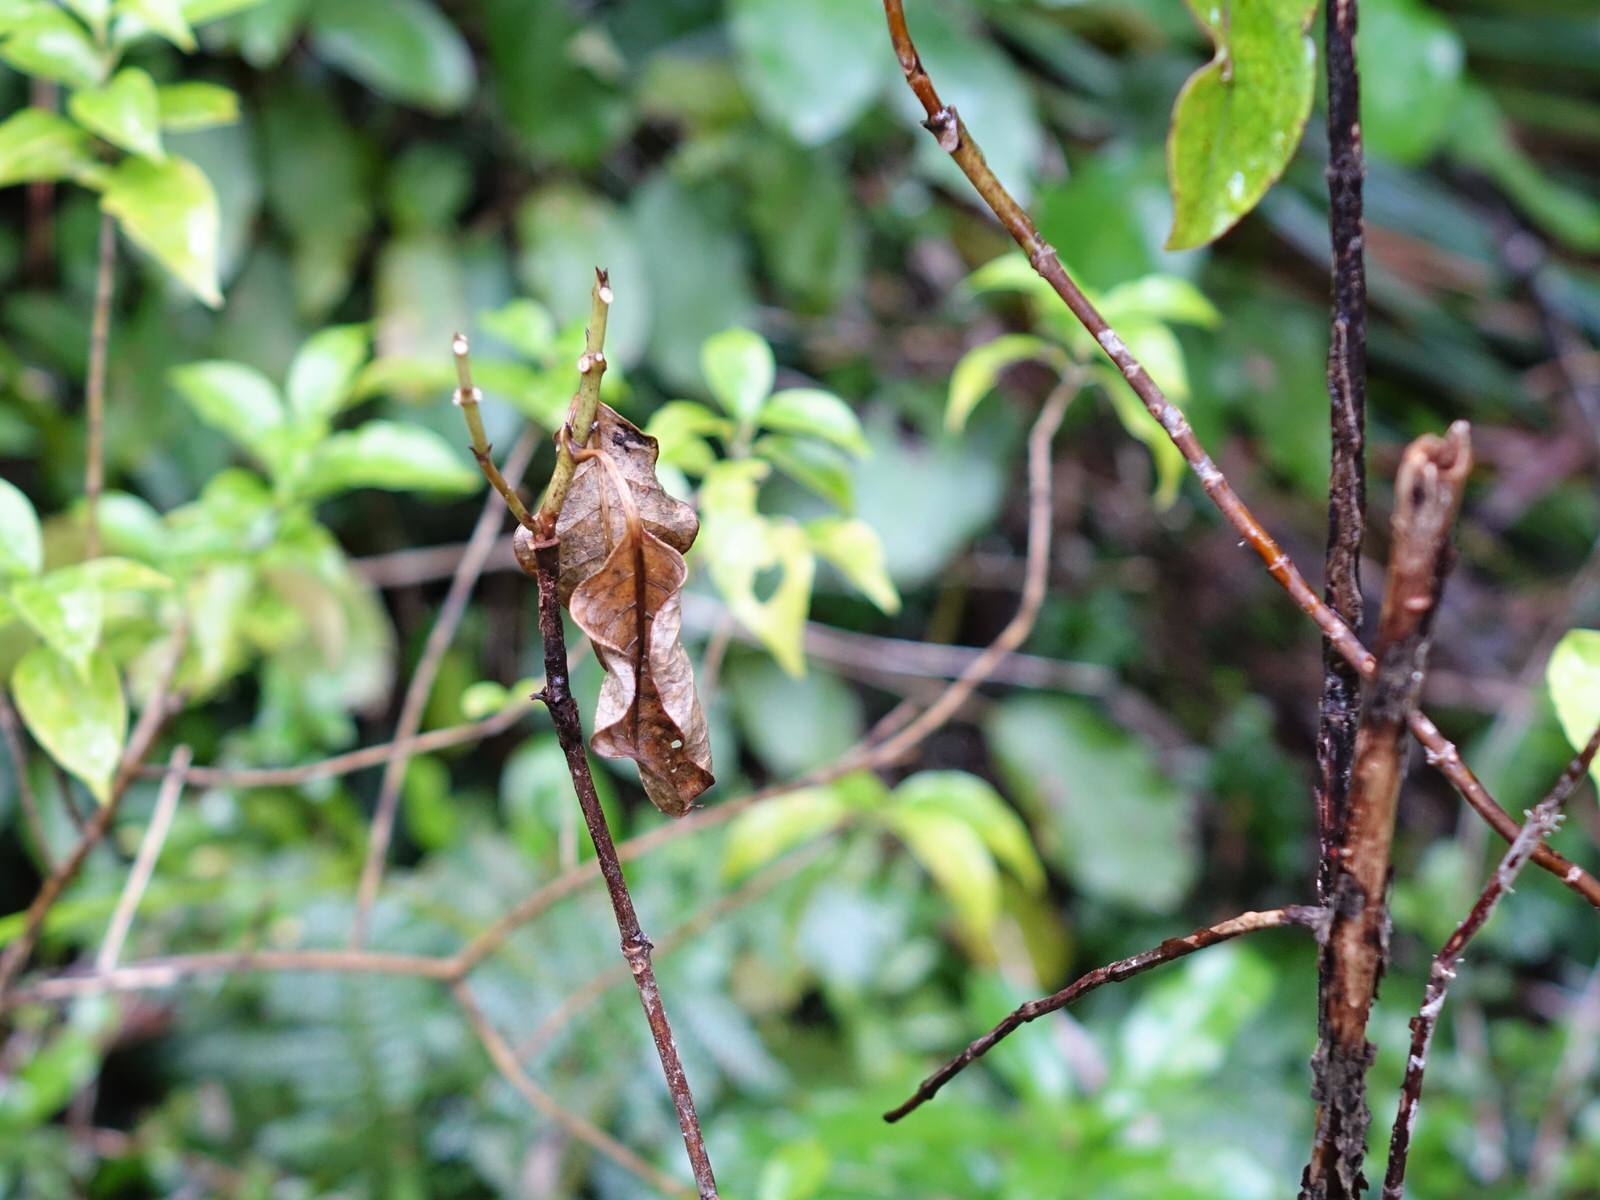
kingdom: Plantae
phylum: Tracheophyta
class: Magnoliopsida
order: Gentianales
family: Rubiaceae
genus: Coprosma
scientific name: Coprosma autumnalis
